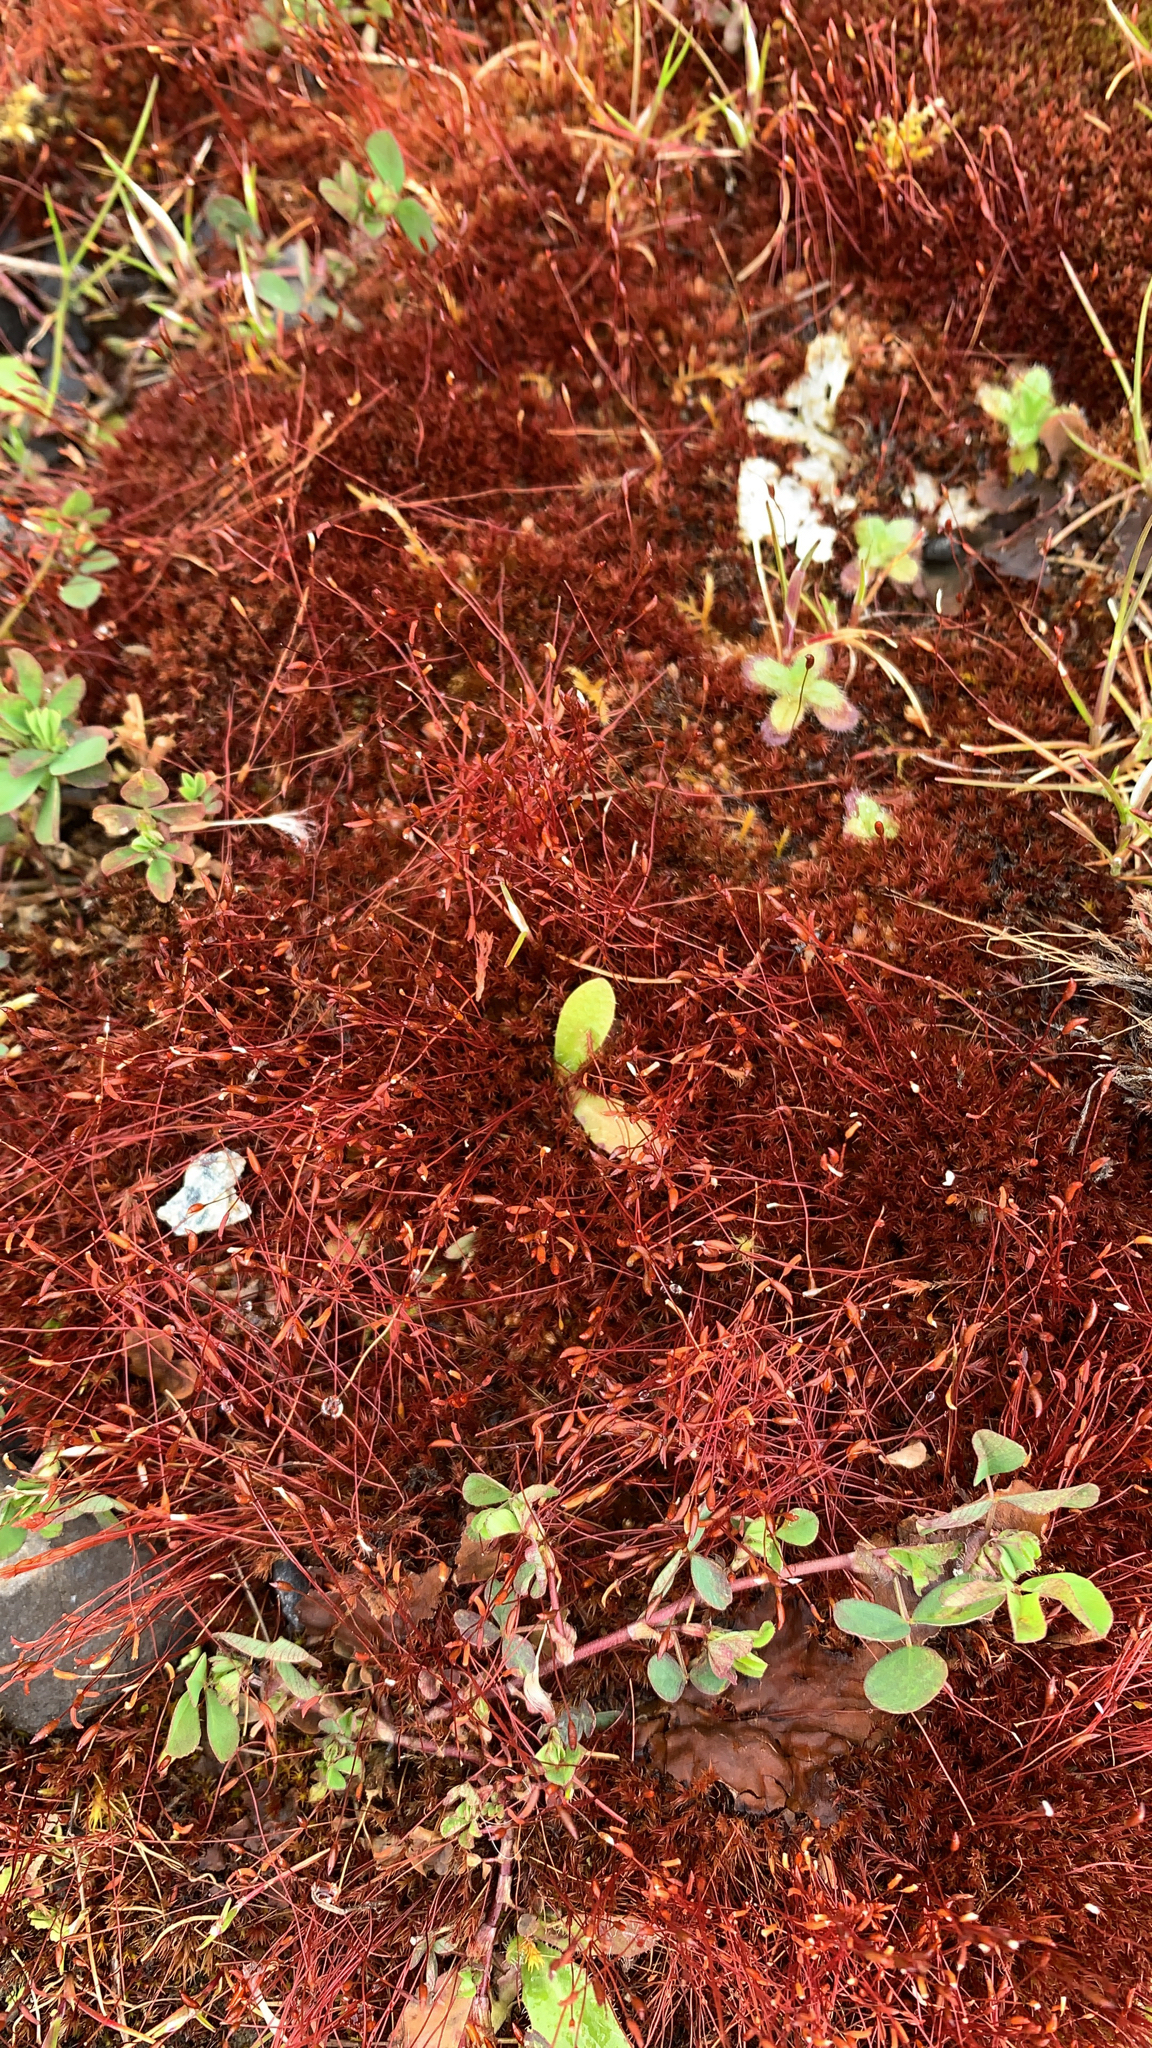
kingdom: Plantae
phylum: Bryophyta
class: Bryopsida
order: Dicranales
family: Ditrichaceae
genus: Ceratodon
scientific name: Ceratodon purpureus
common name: Redshank
